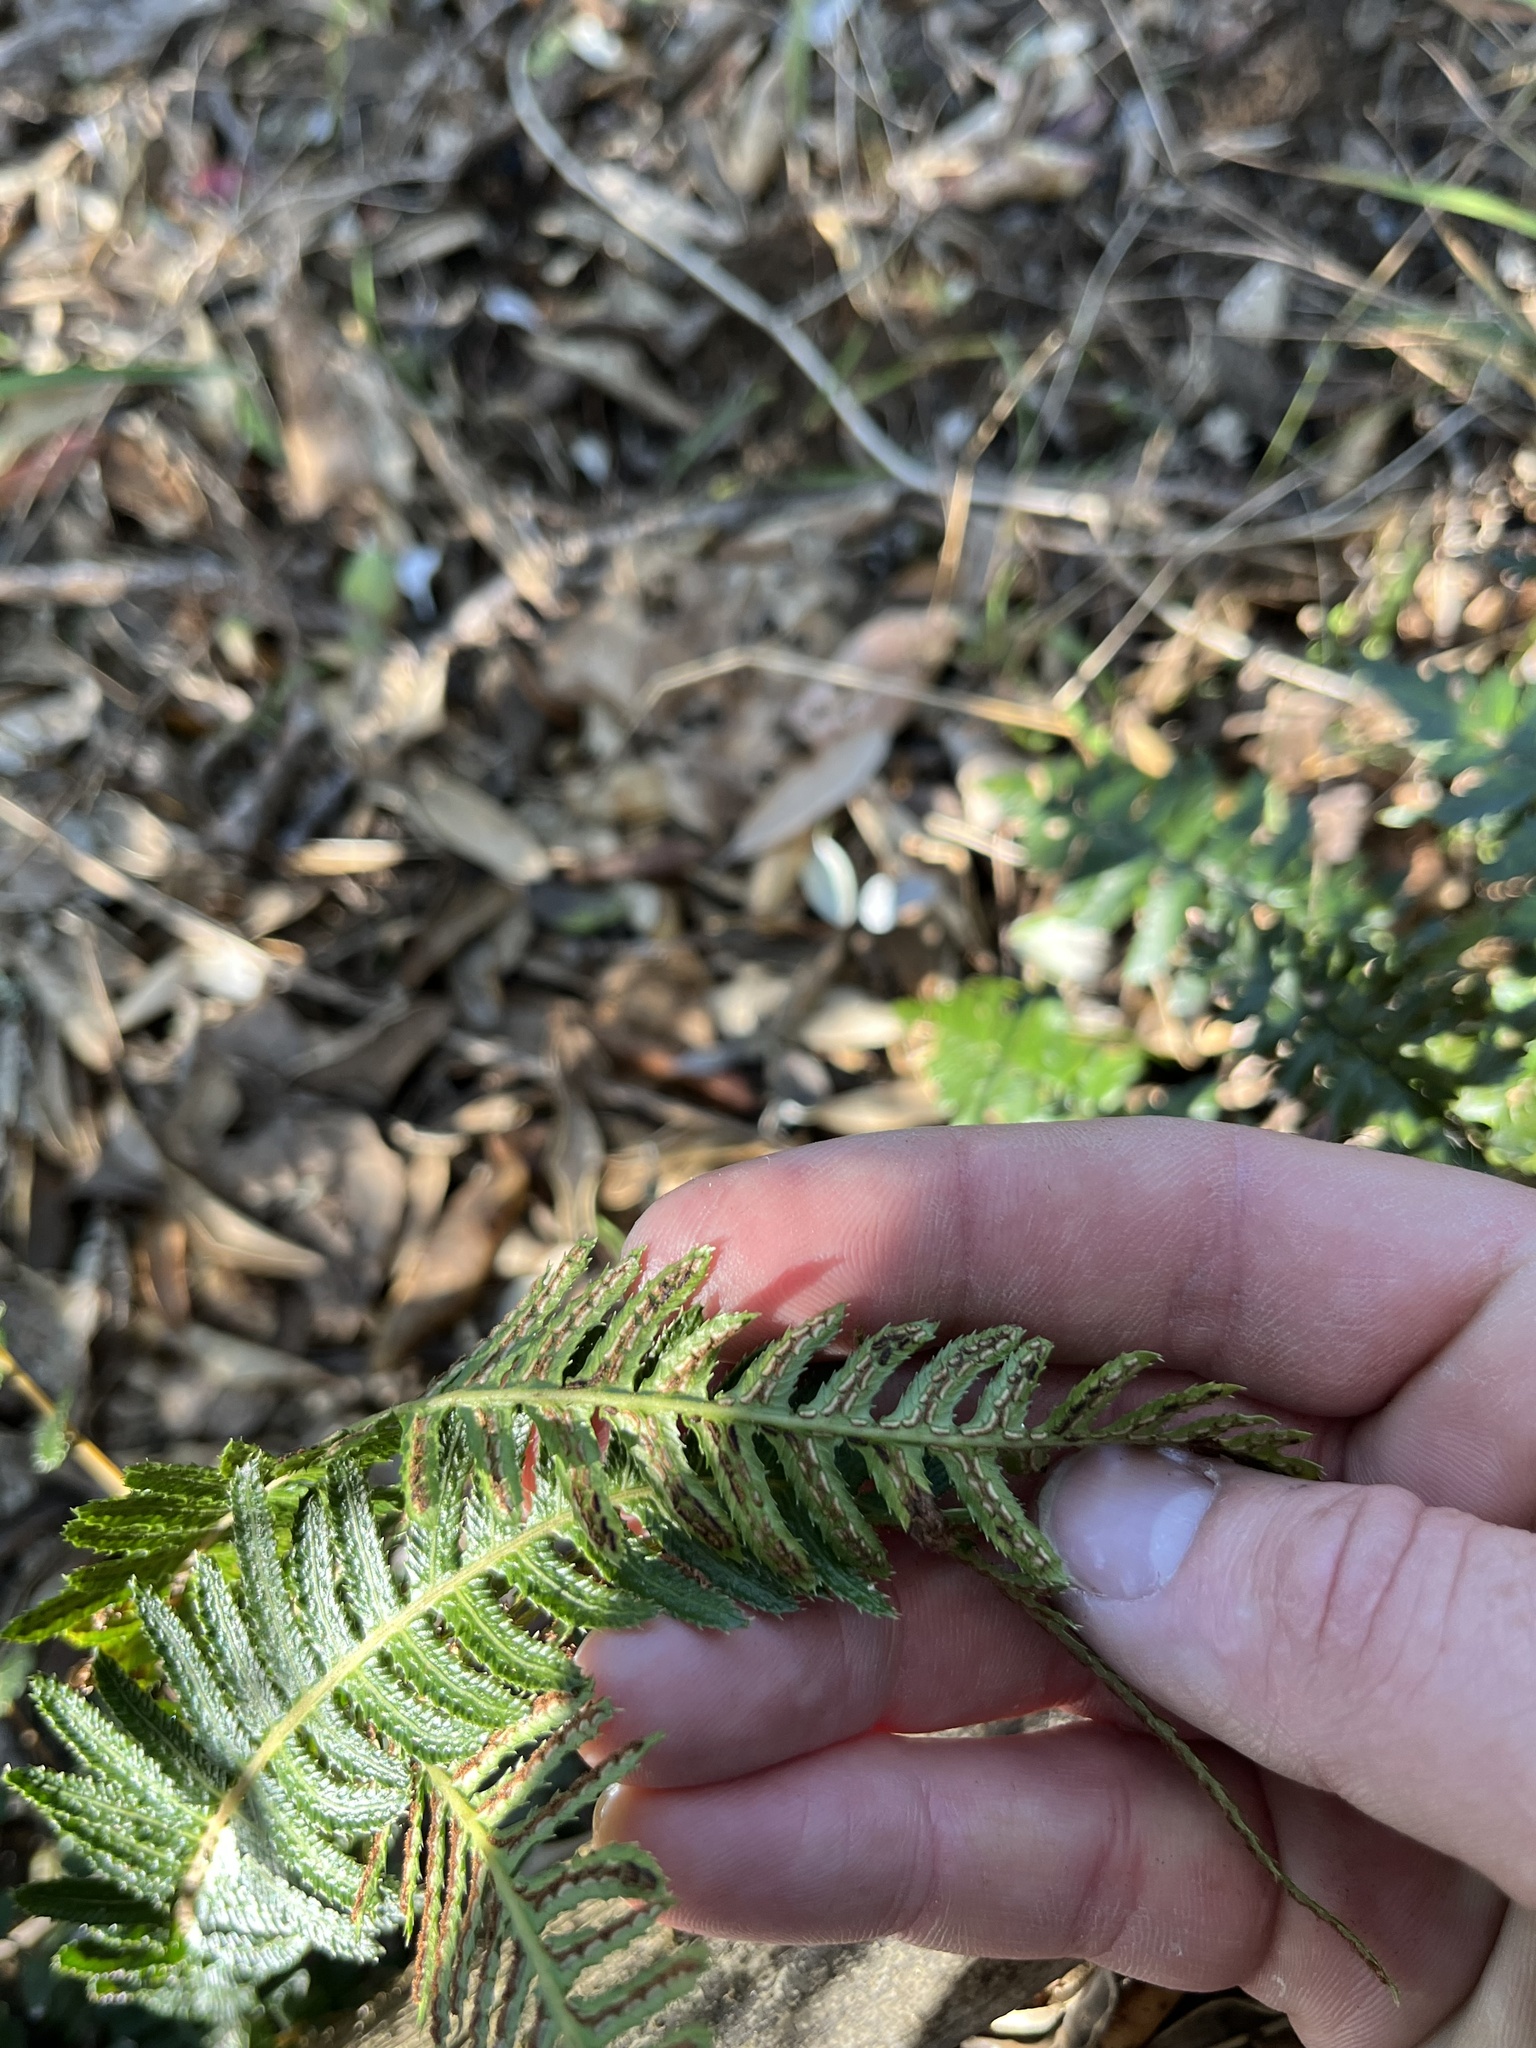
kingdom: Plantae
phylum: Tracheophyta
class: Polypodiopsida
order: Polypodiales
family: Blechnaceae
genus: Doodia
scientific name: Doodia australis
